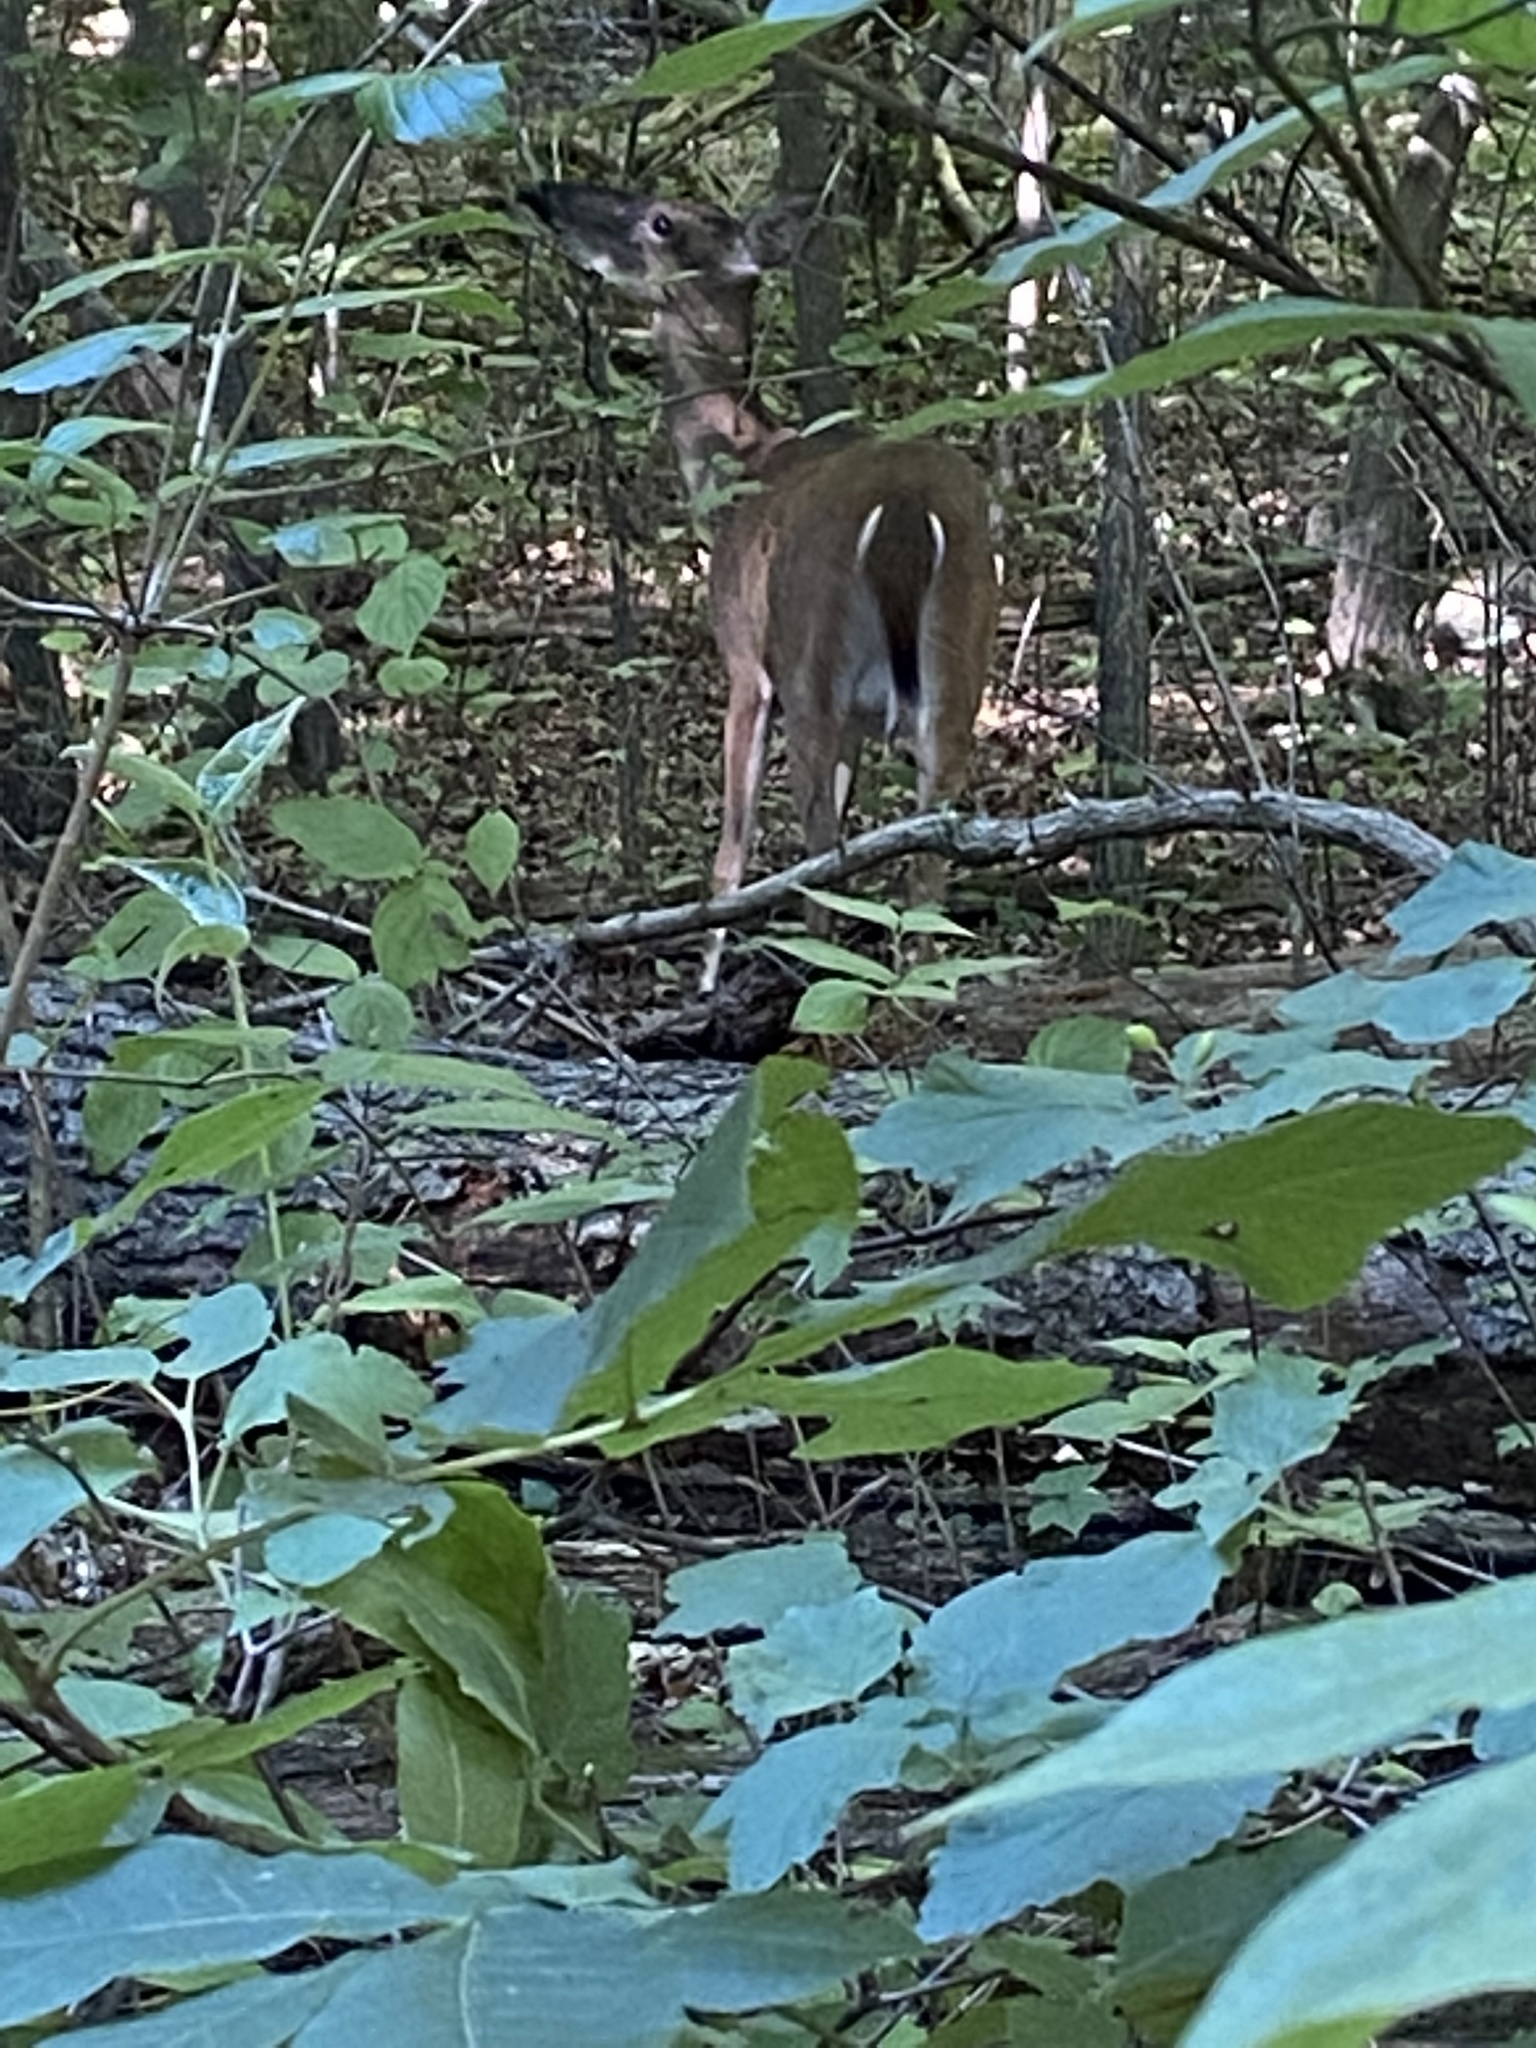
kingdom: Animalia
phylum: Chordata
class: Mammalia
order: Artiodactyla
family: Cervidae
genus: Odocoileus
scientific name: Odocoileus virginianus
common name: White-tailed deer
